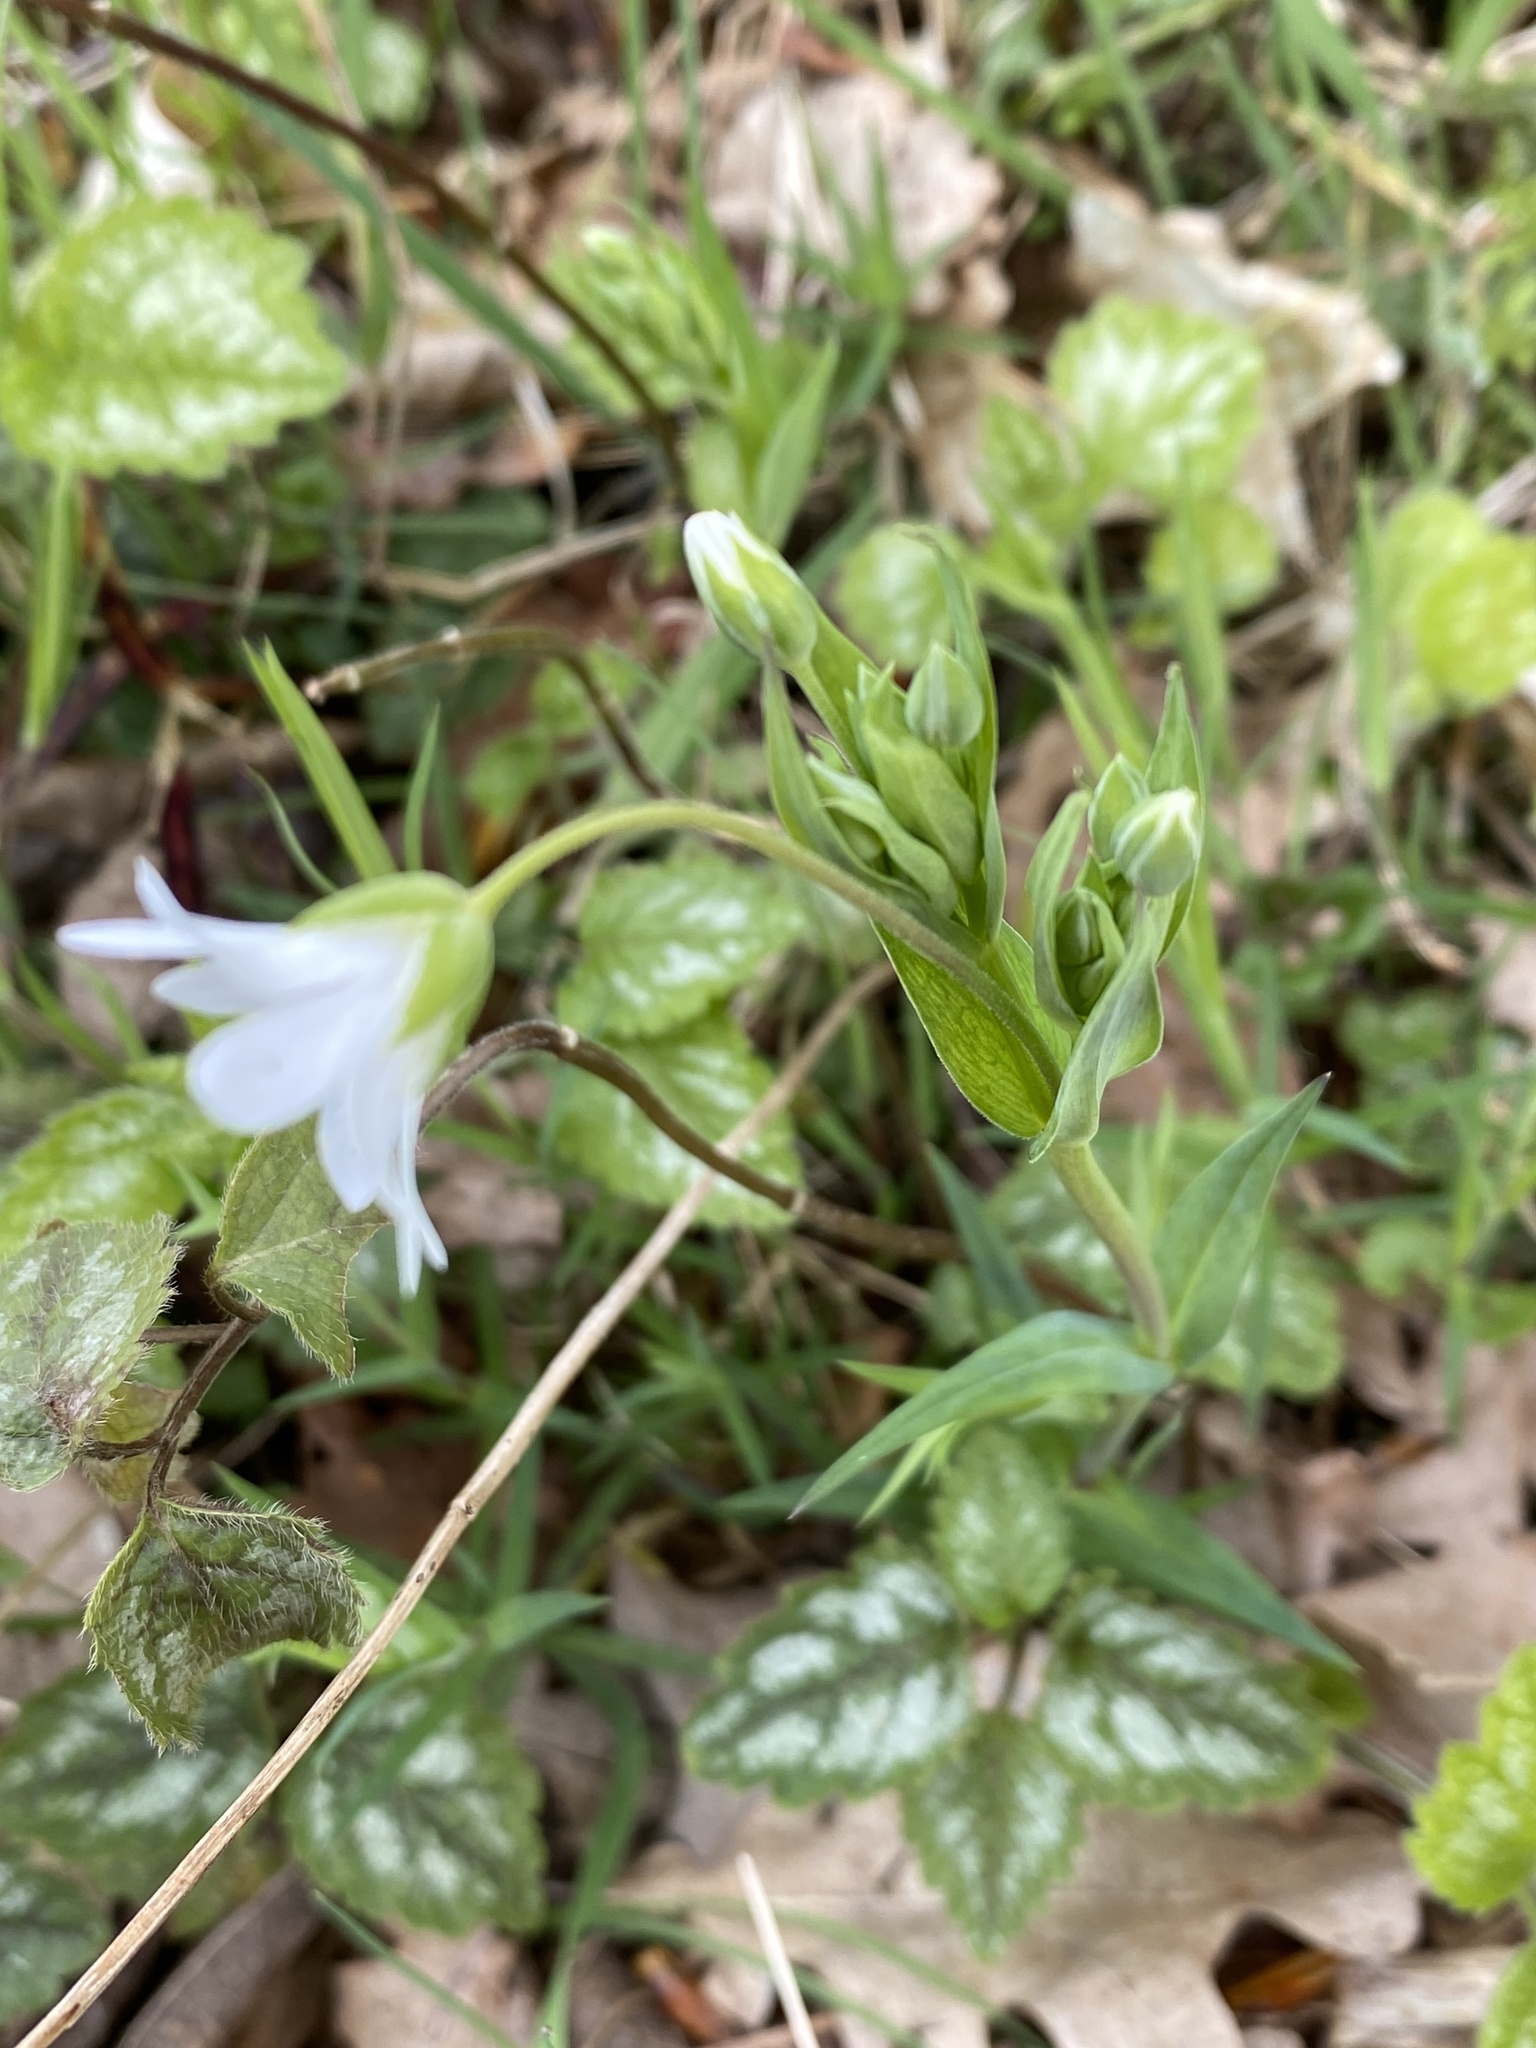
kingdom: Plantae
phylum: Tracheophyta
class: Magnoliopsida
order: Caryophyllales
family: Caryophyllaceae
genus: Rabelera
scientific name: Rabelera holostea
